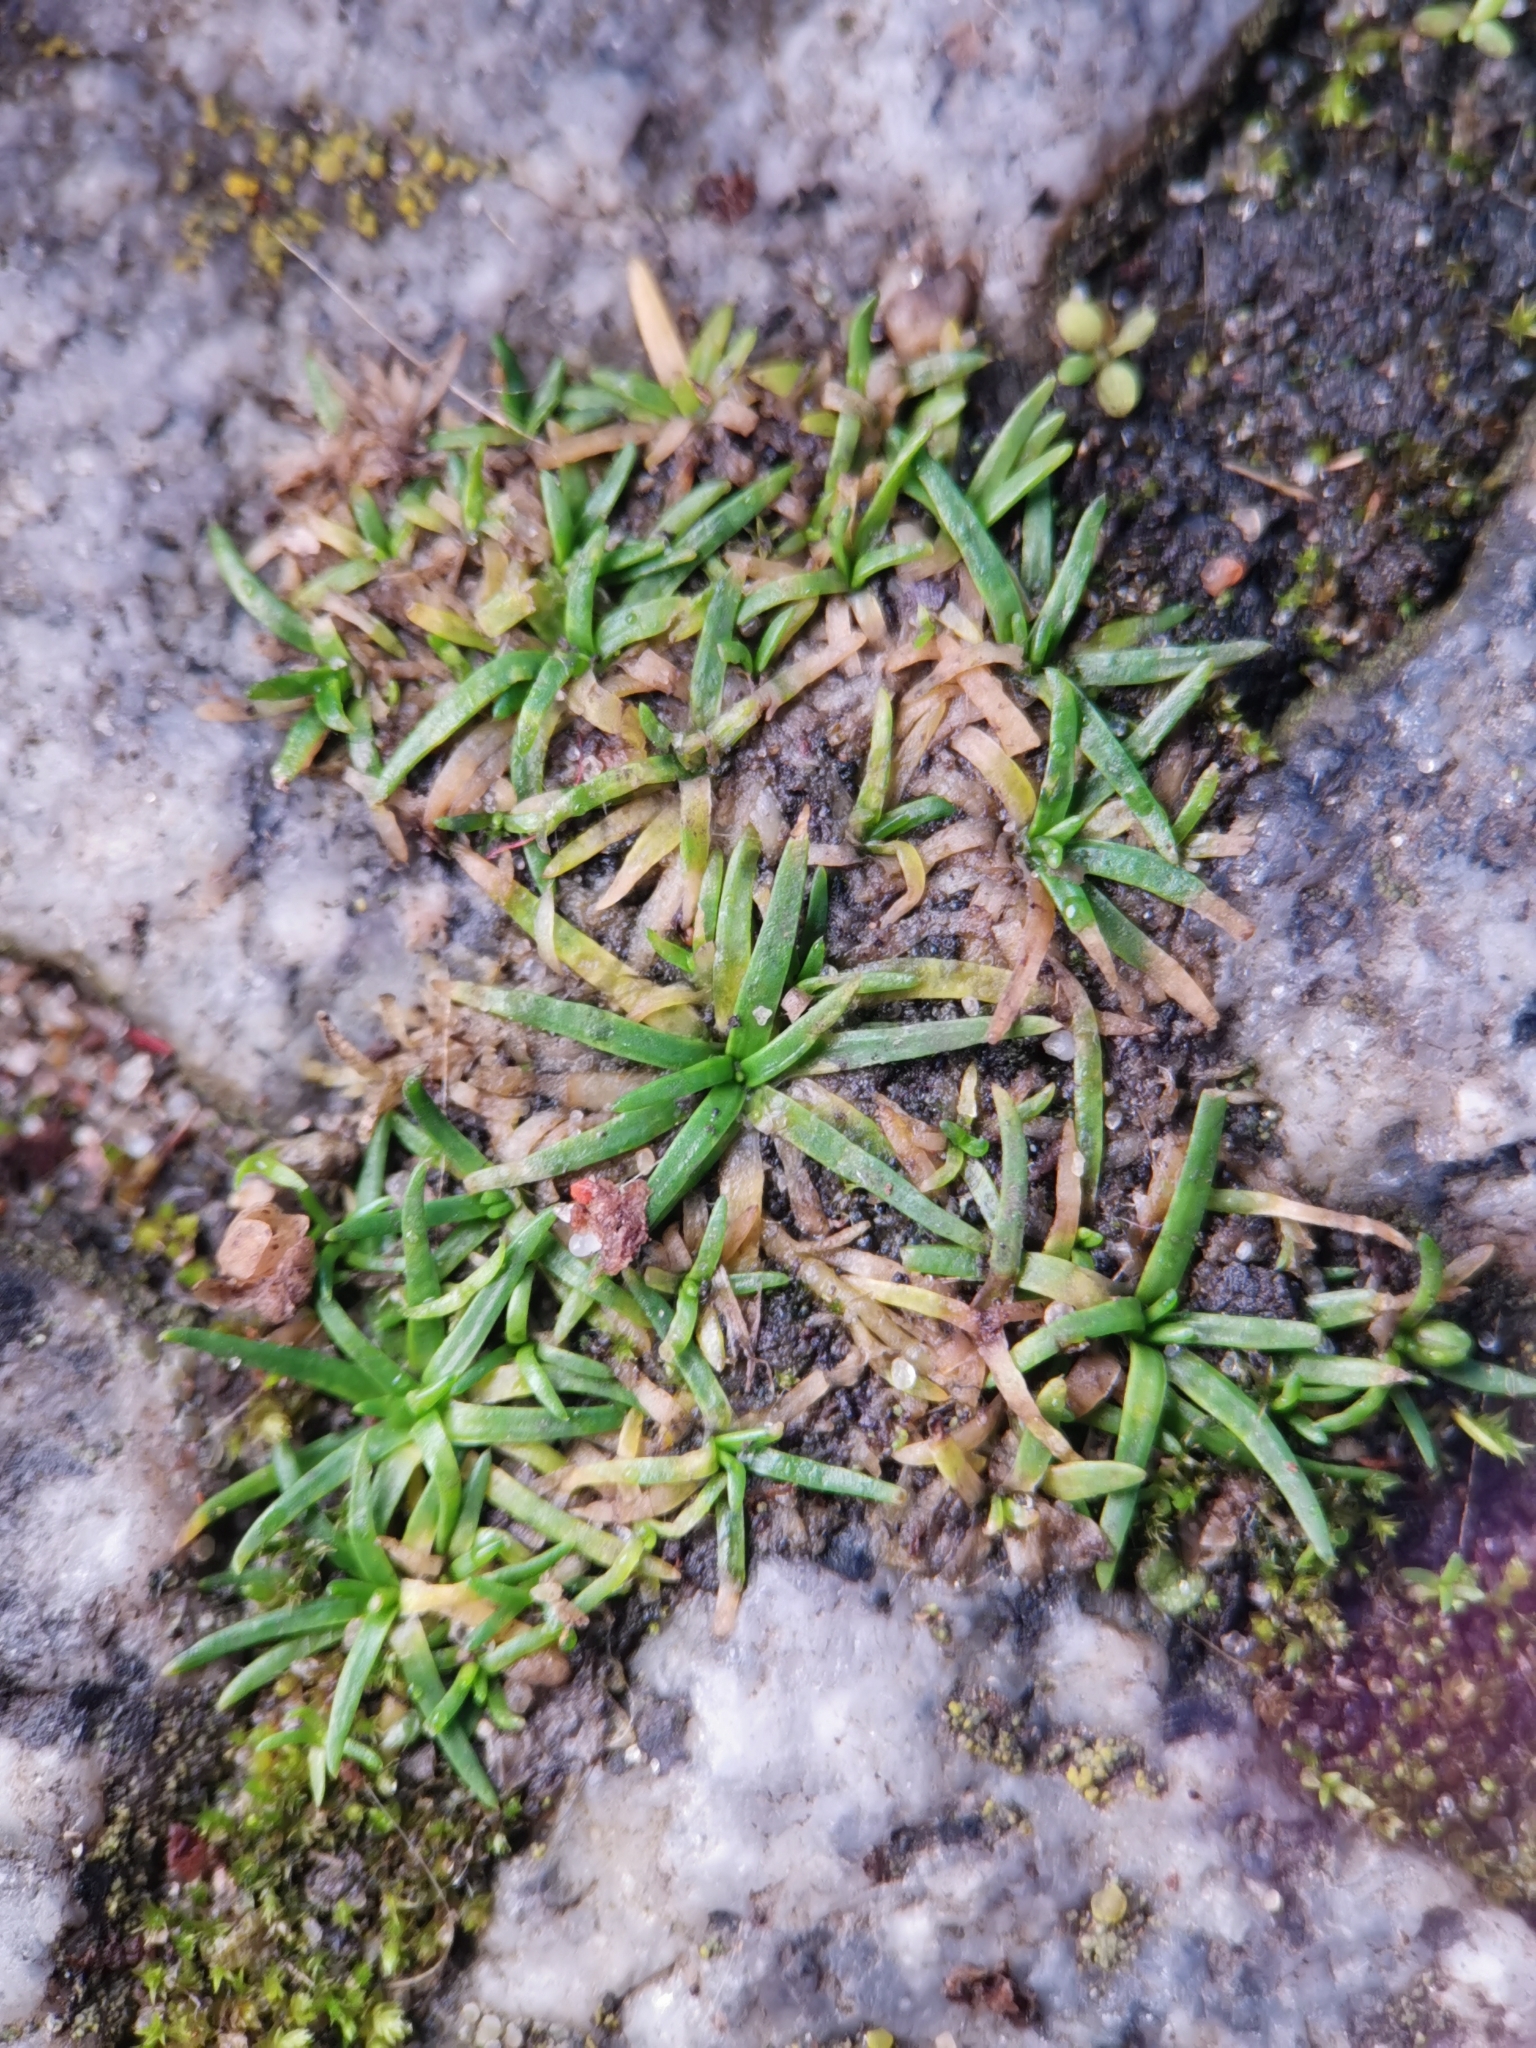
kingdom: Plantae
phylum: Tracheophyta
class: Magnoliopsida
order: Caryophyllales
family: Caryophyllaceae
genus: Sagina
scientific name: Sagina procumbens
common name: Procumbent pearlwort
